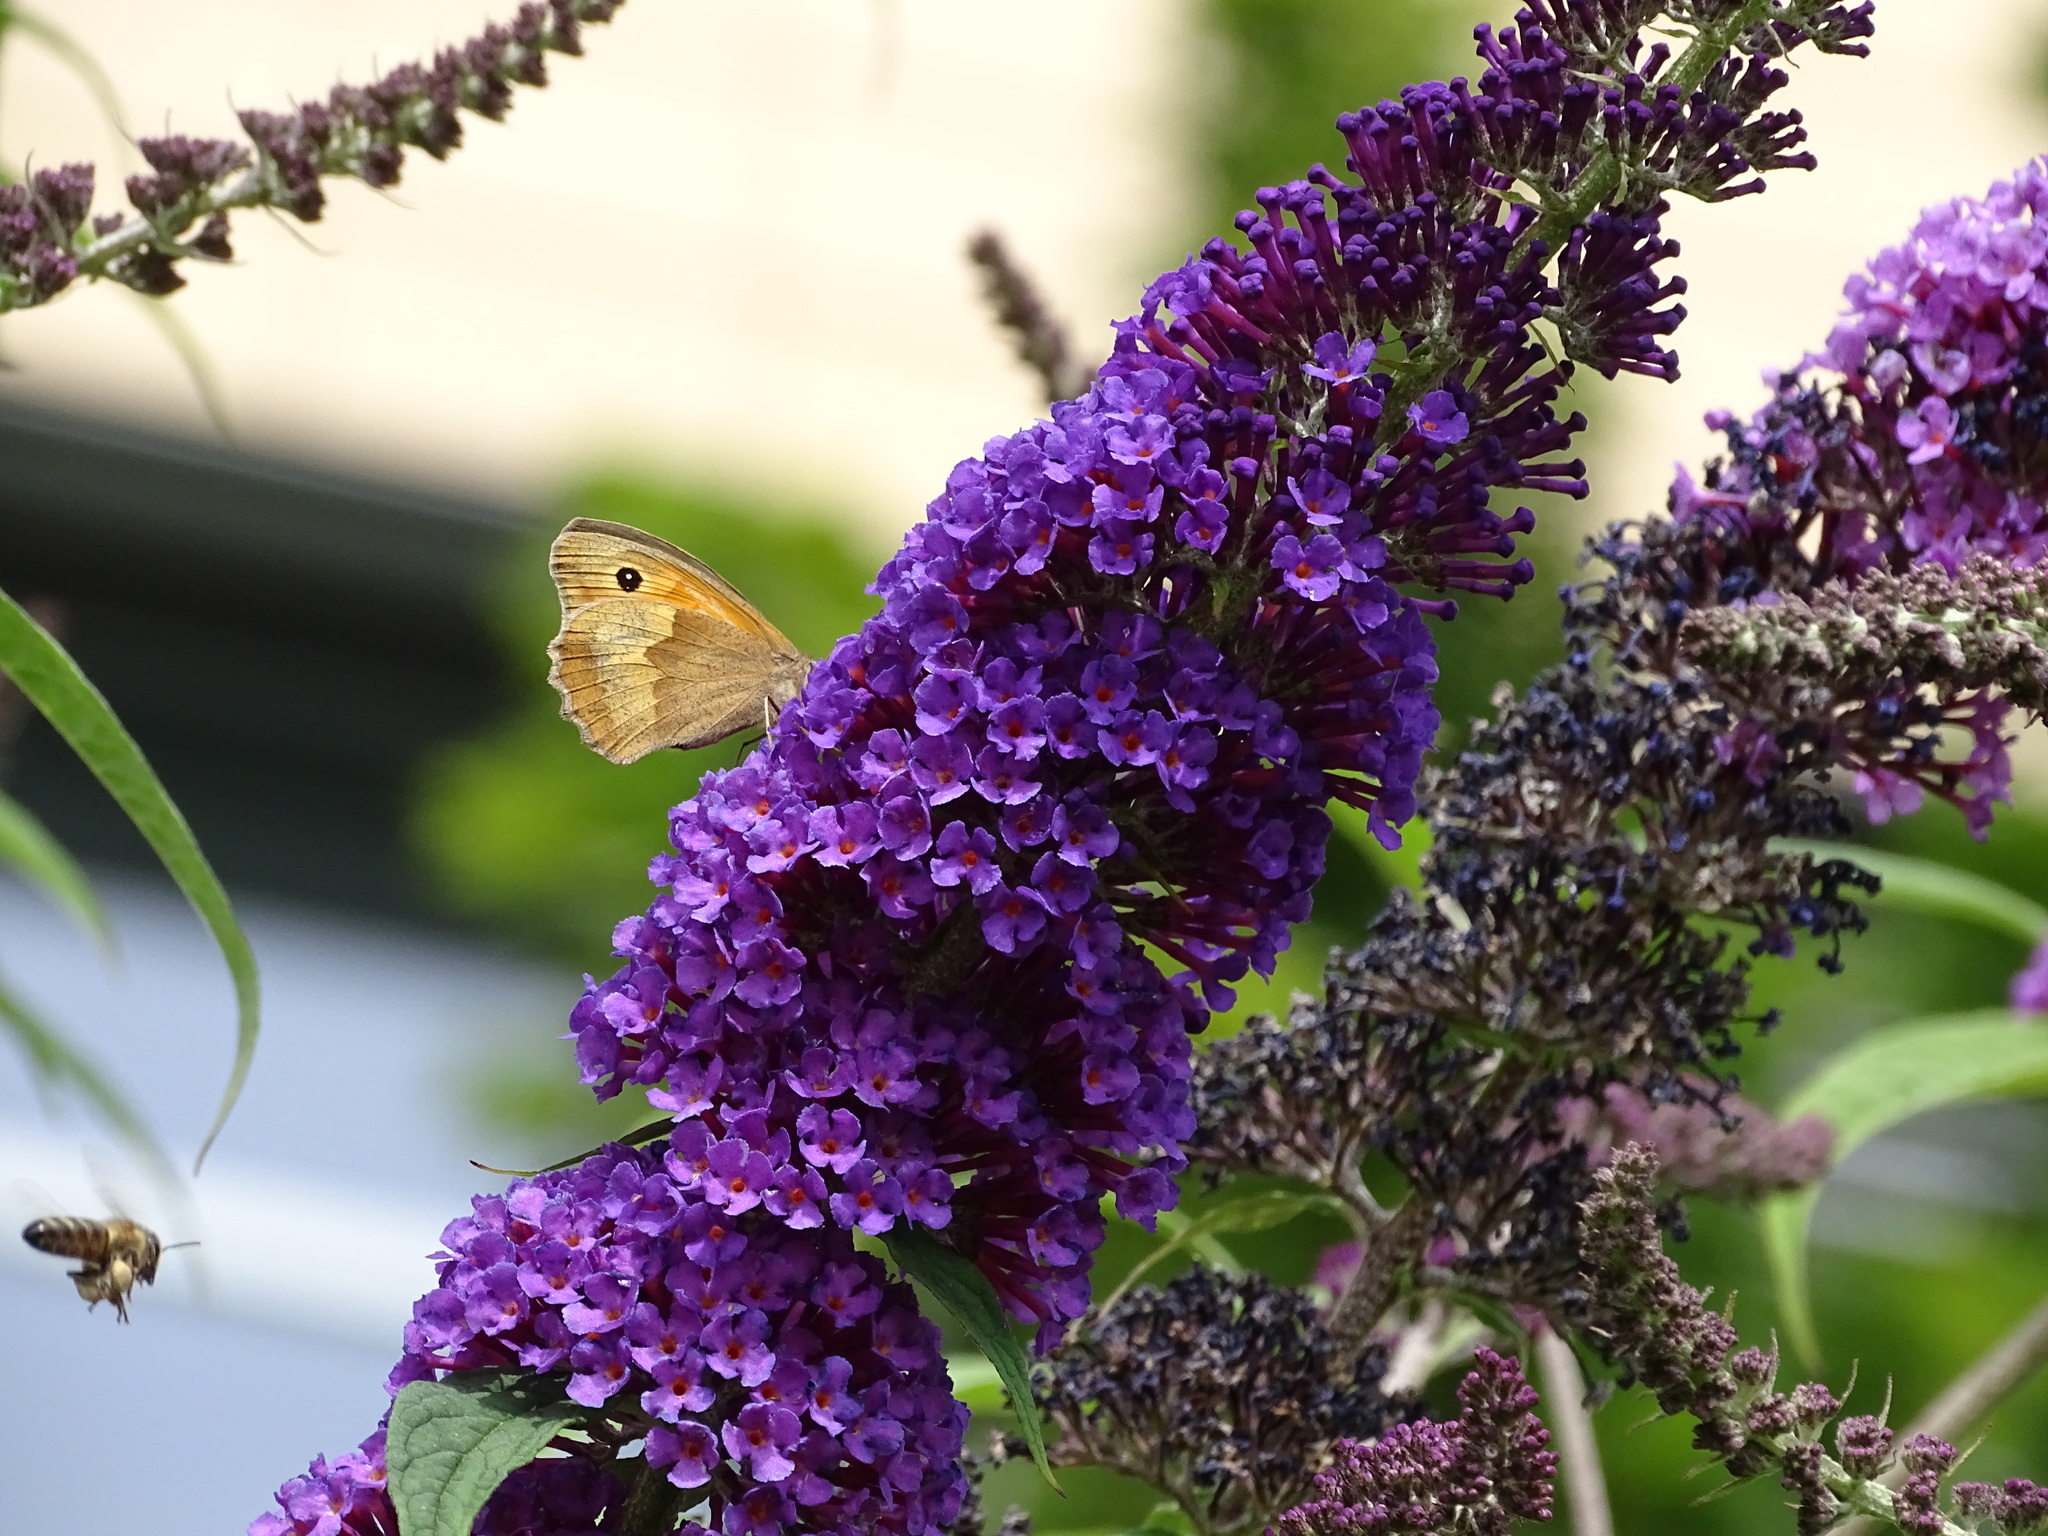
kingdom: Animalia
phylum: Arthropoda
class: Insecta
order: Lepidoptera
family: Nymphalidae
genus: Maniola
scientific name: Maniola jurtina
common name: Meadow brown
